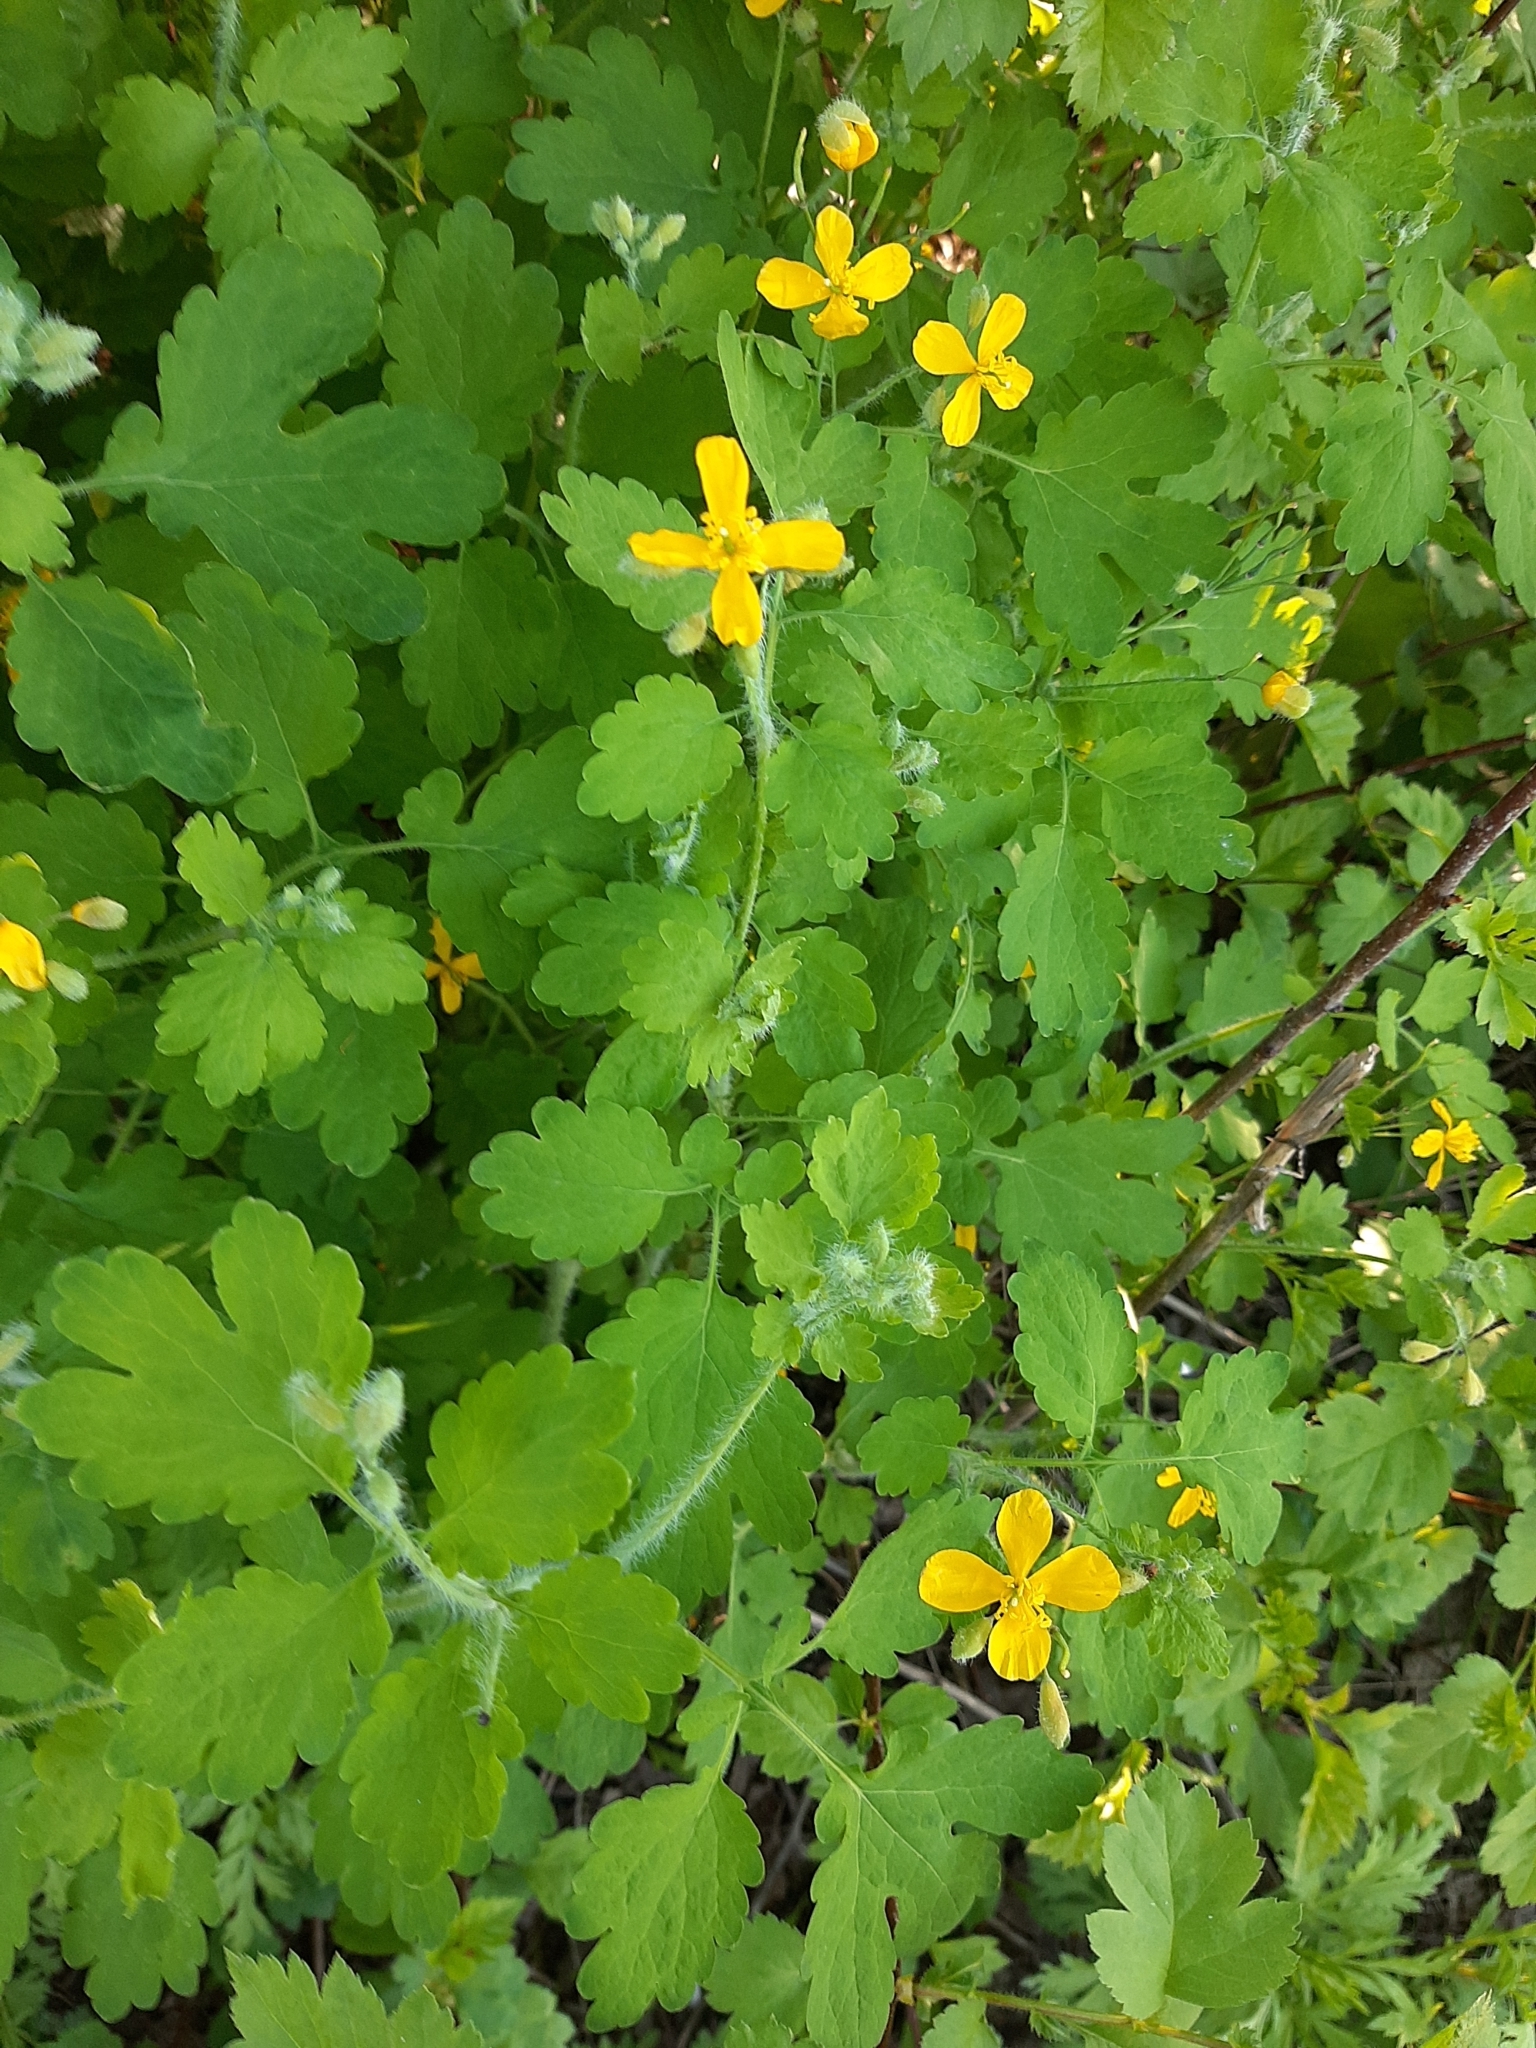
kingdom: Plantae
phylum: Tracheophyta
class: Magnoliopsida
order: Ranunculales
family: Papaveraceae
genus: Chelidonium
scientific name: Chelidonium majus
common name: Greater celandine
